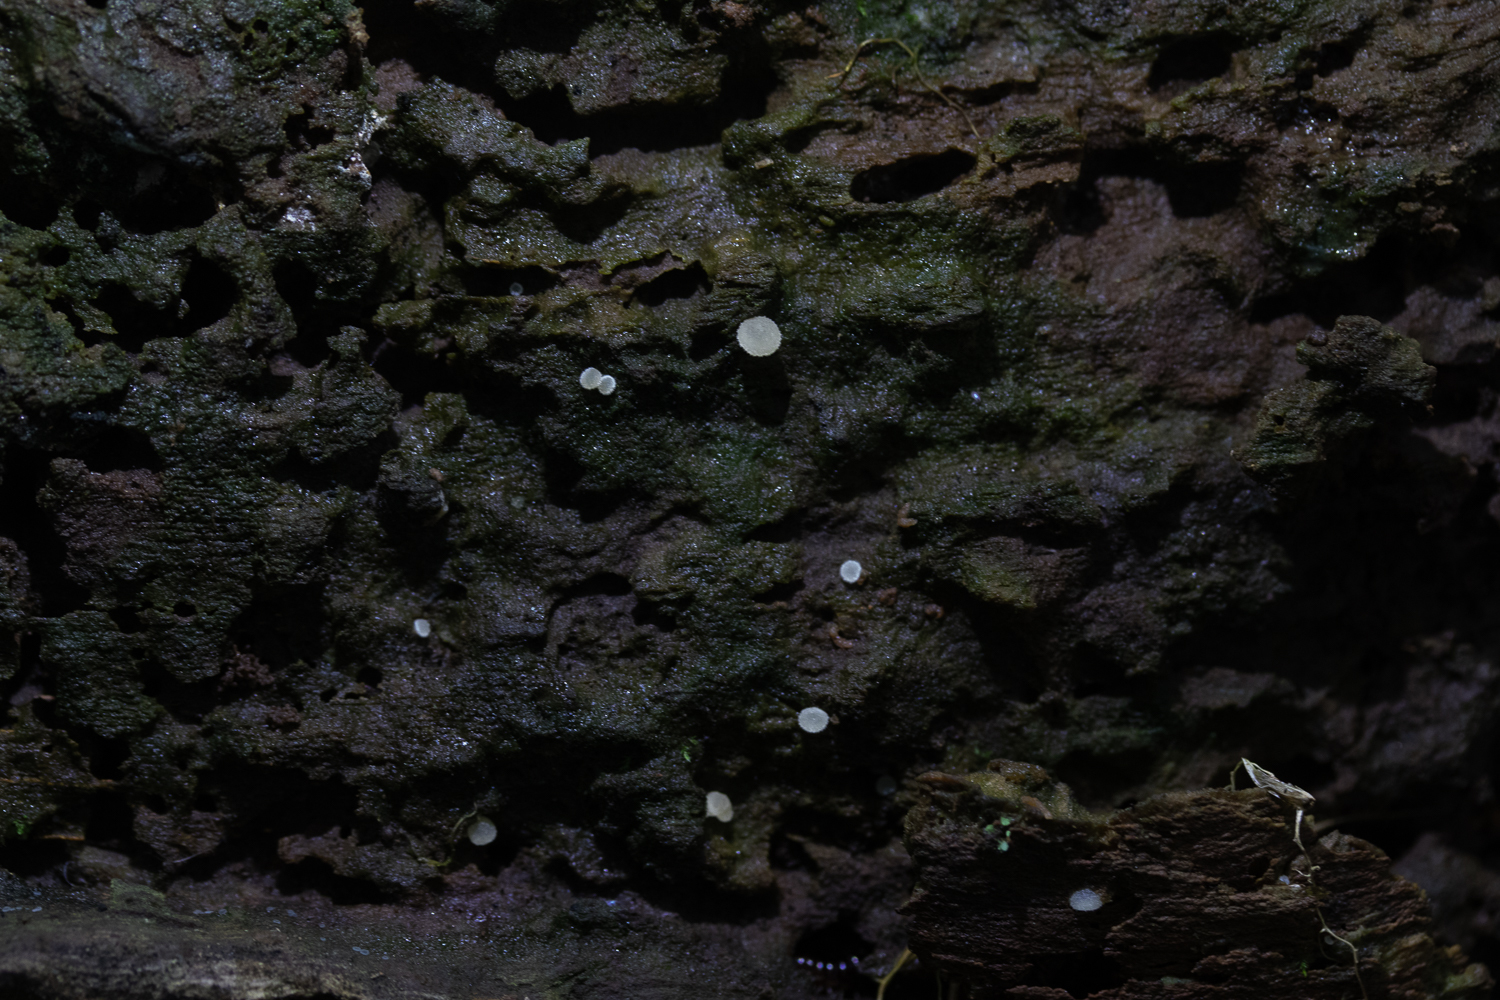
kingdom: Fungi
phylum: Ascomycota
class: Leotiomycetes
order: Helotiales
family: Lachnaceae
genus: Lachnum
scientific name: Lachnum virgineum
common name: Snowy disco
